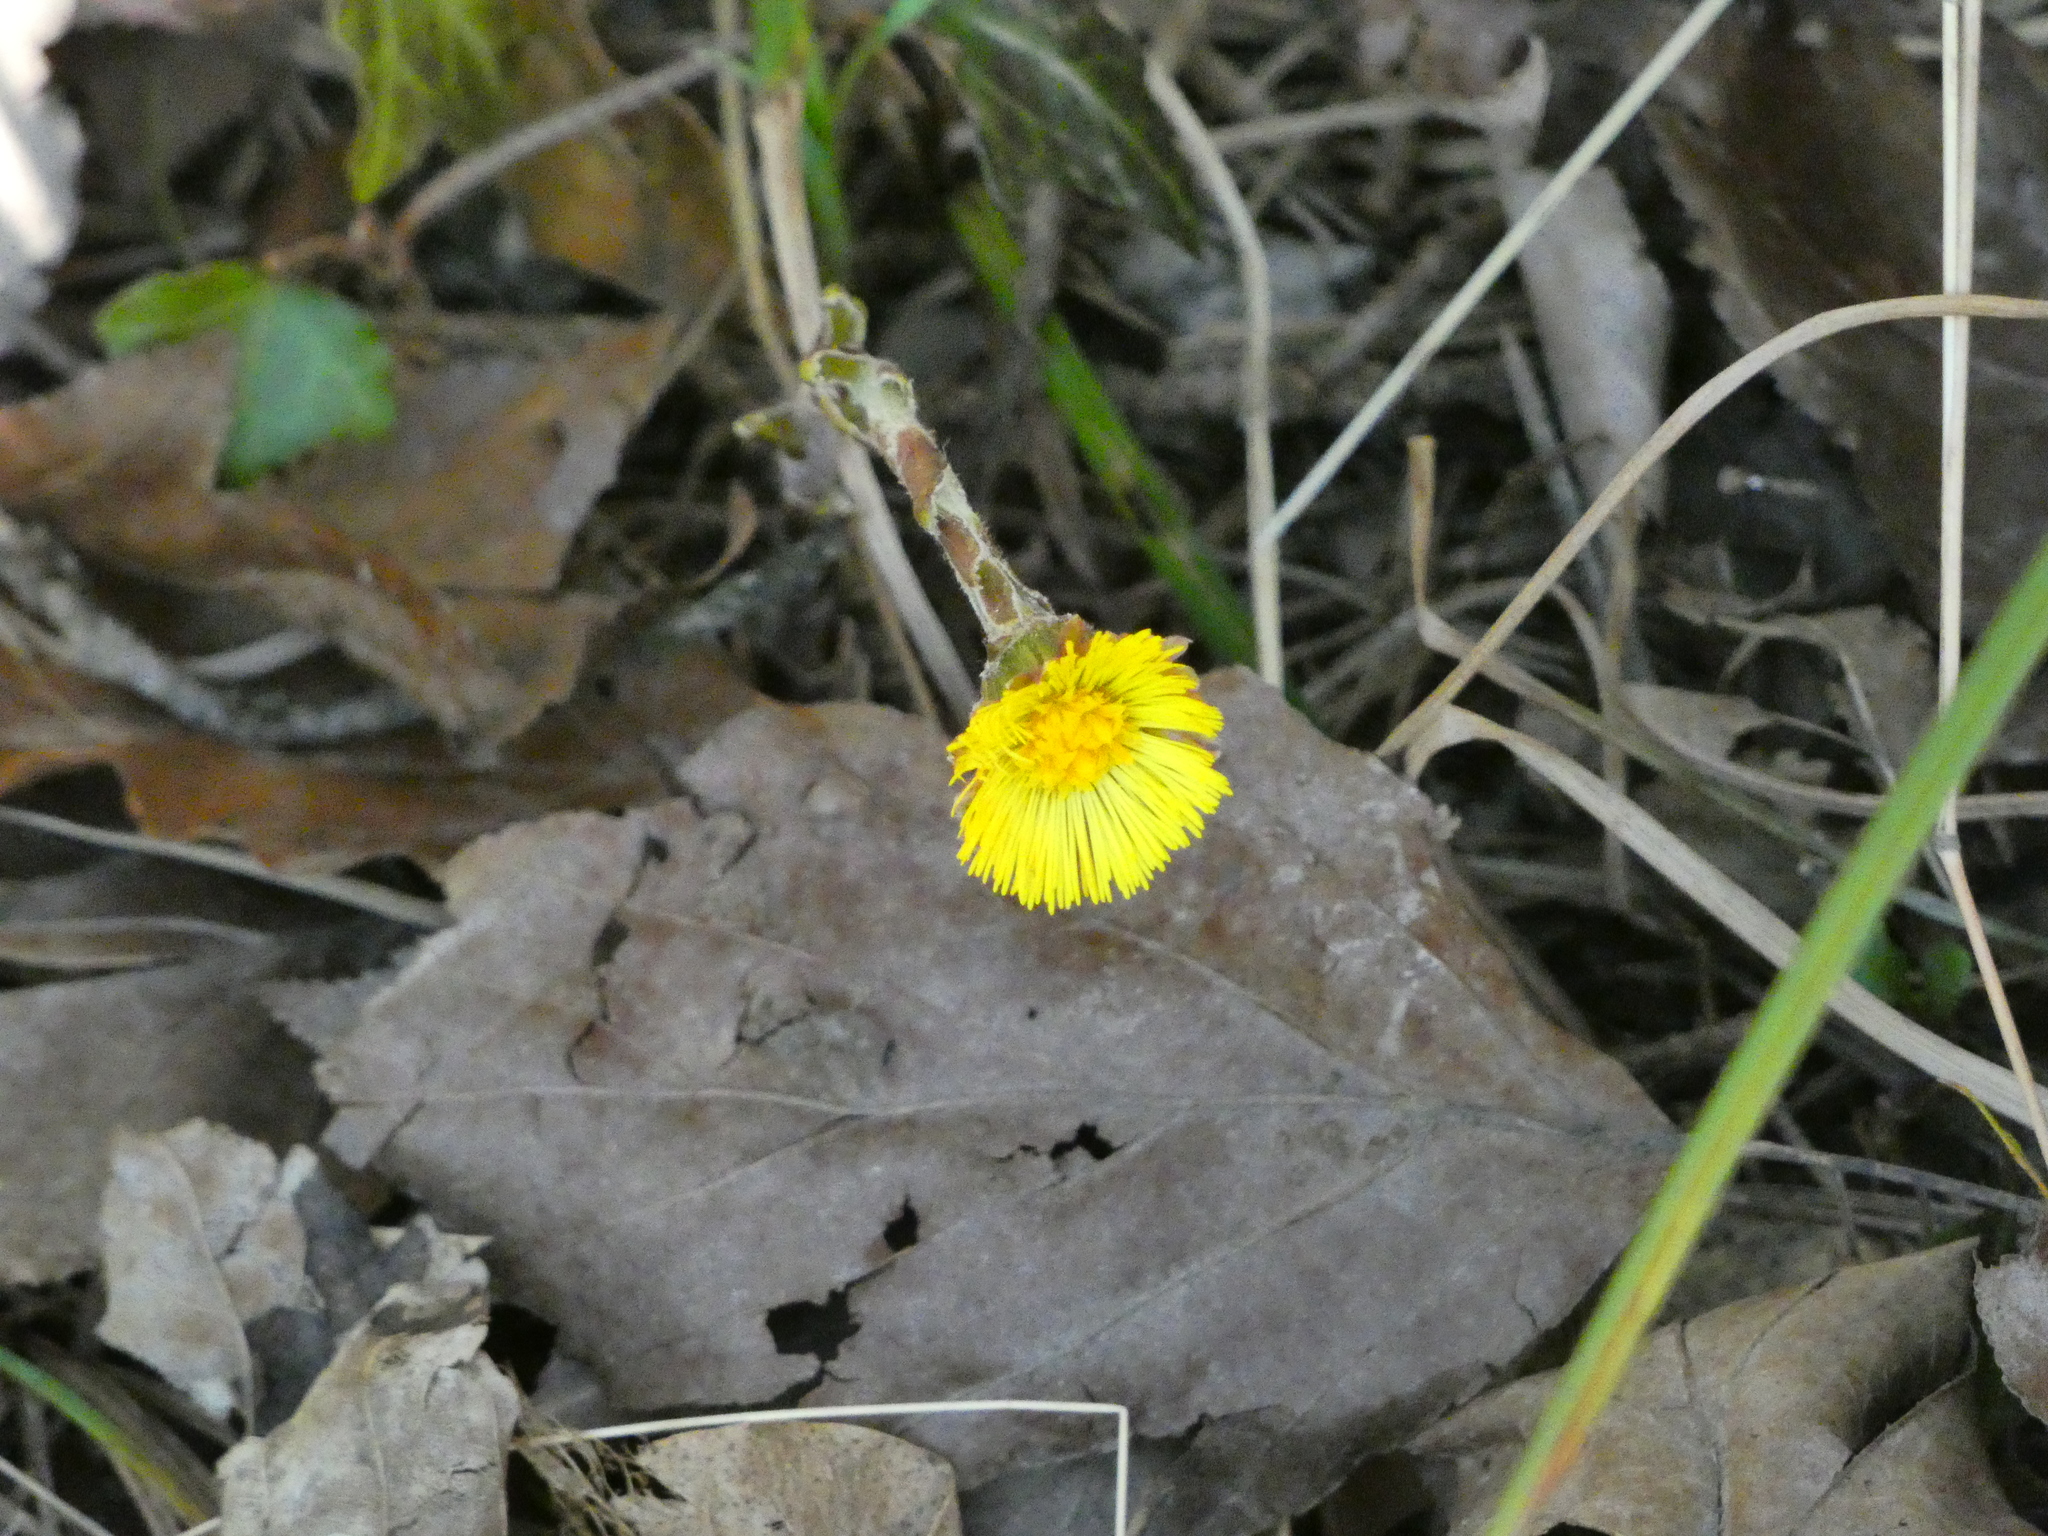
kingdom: Plantae
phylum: Tracheophyta
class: Magnoliopsida
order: Asterales
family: Asteraceae
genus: Tussilago
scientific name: Tussilago farfara
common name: Coltsfoot
